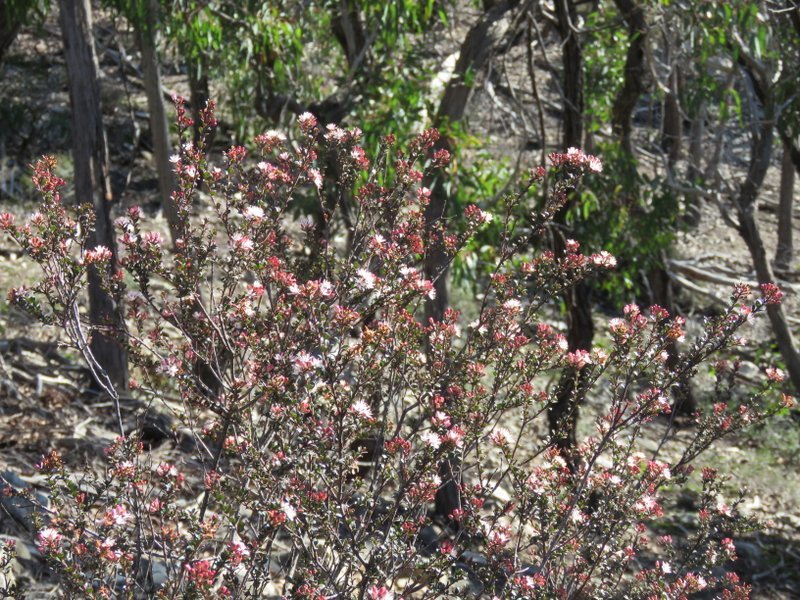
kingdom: Plantae
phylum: Tracheophyta
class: Magnoliopsida
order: Sapindales
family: Rutaceae
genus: Leionema
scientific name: Leionema lamprophyllum
